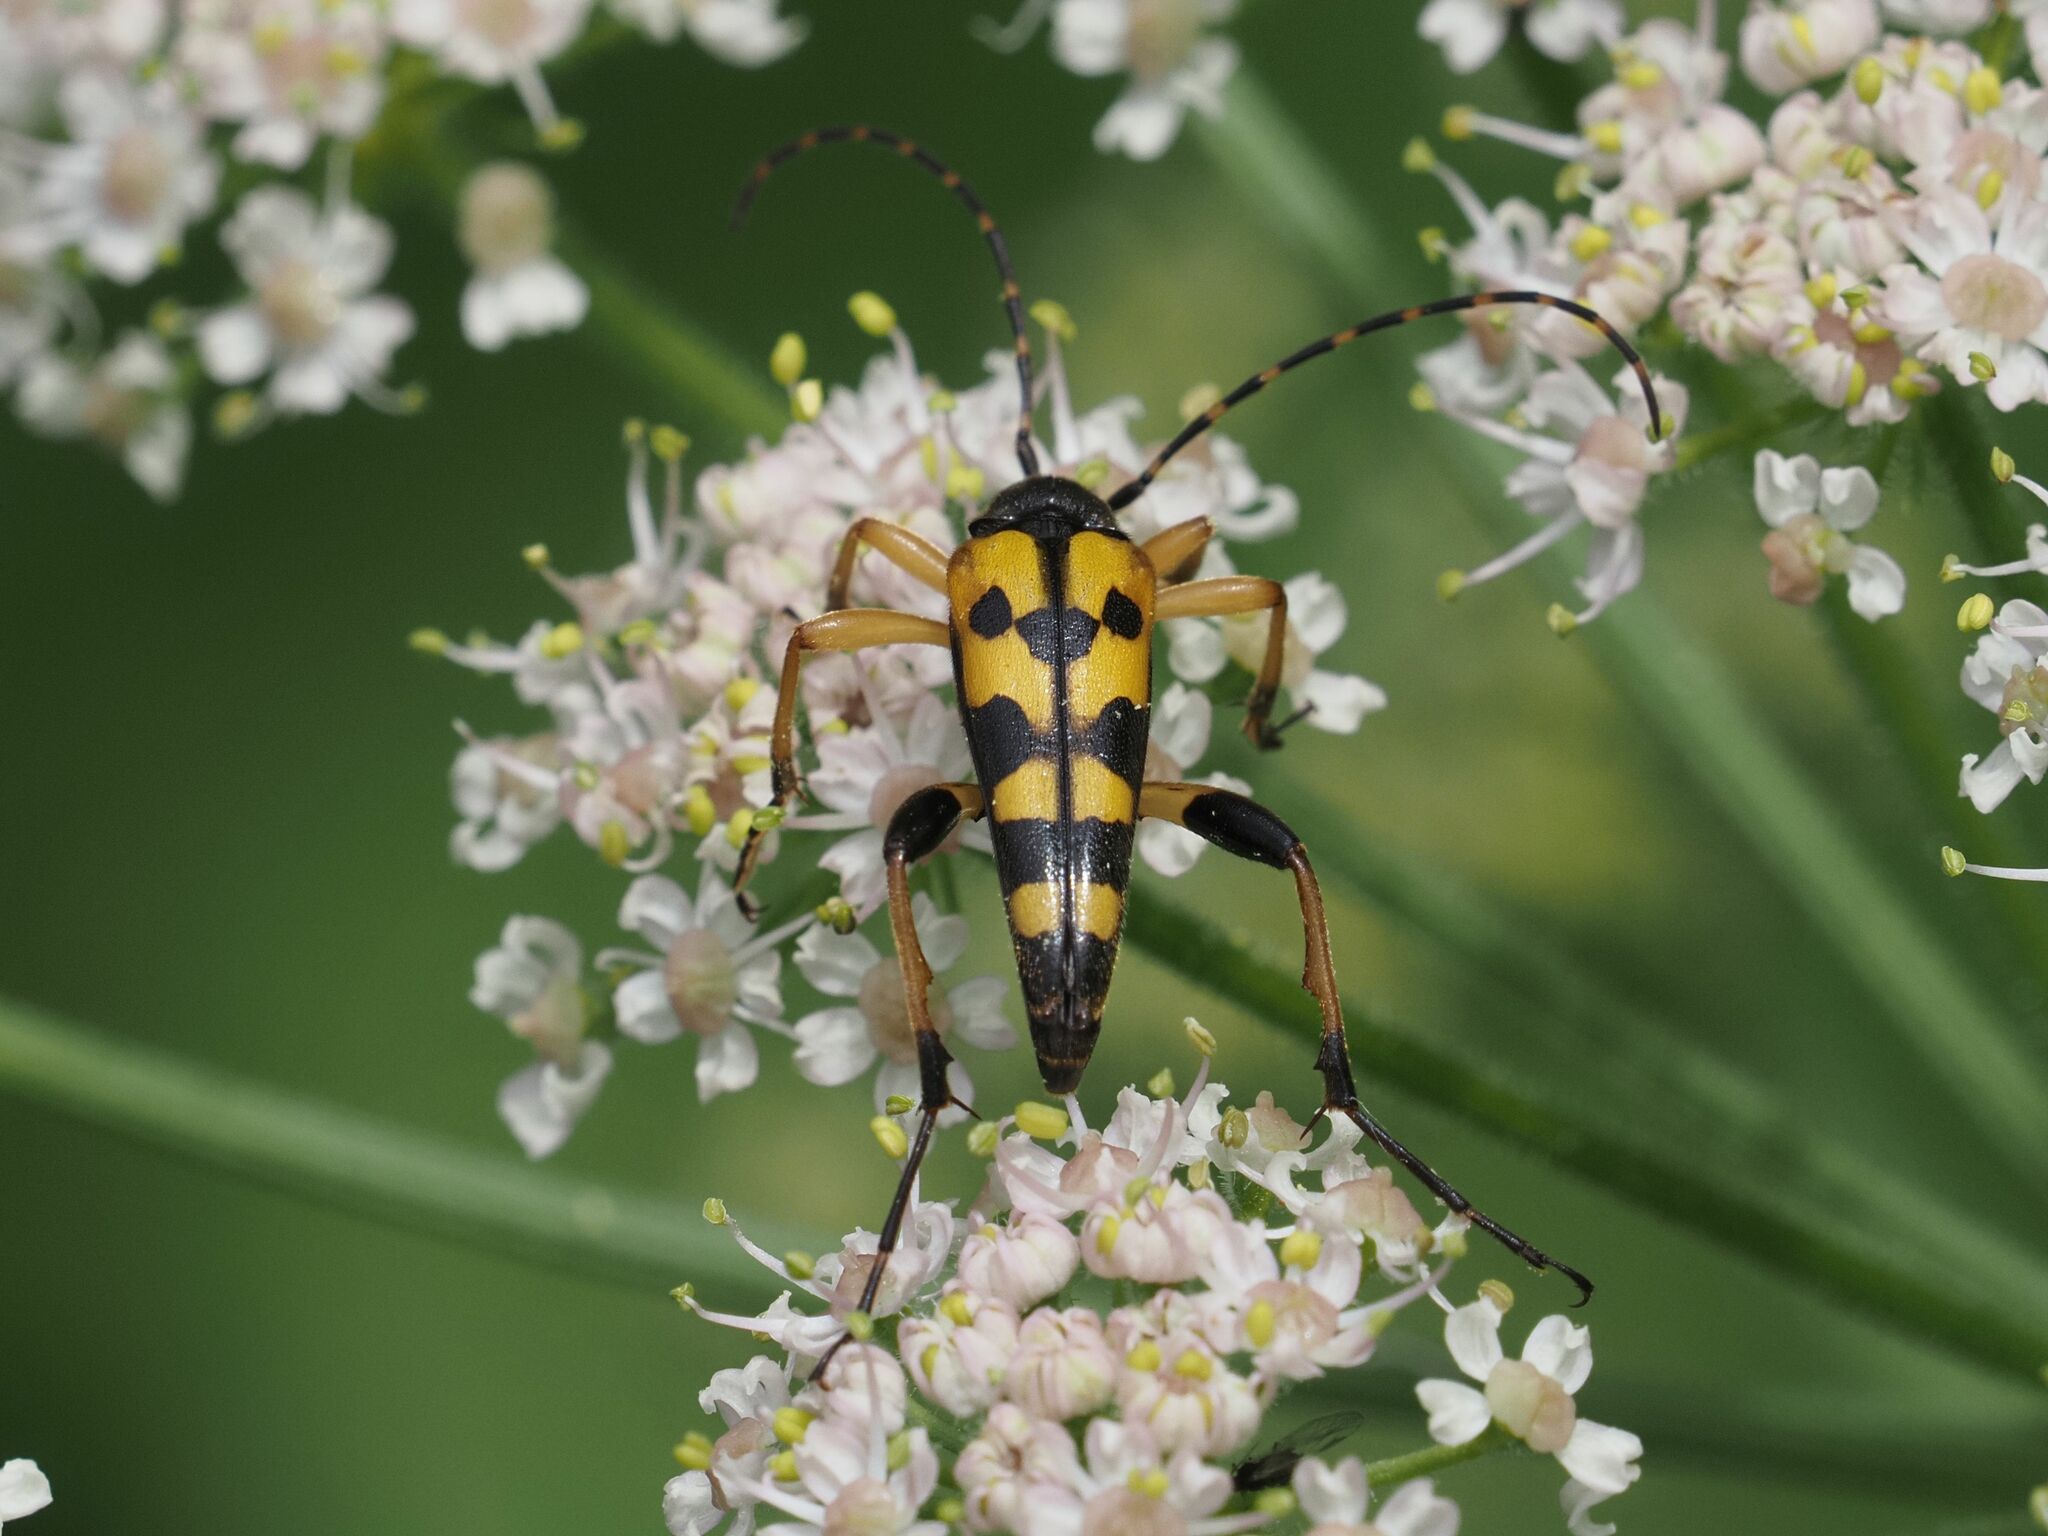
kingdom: Animalia
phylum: Arthropoda
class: Insecta
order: Coleoptera
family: Cerambycidae
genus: Rutpela
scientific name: Rutpela maculata
